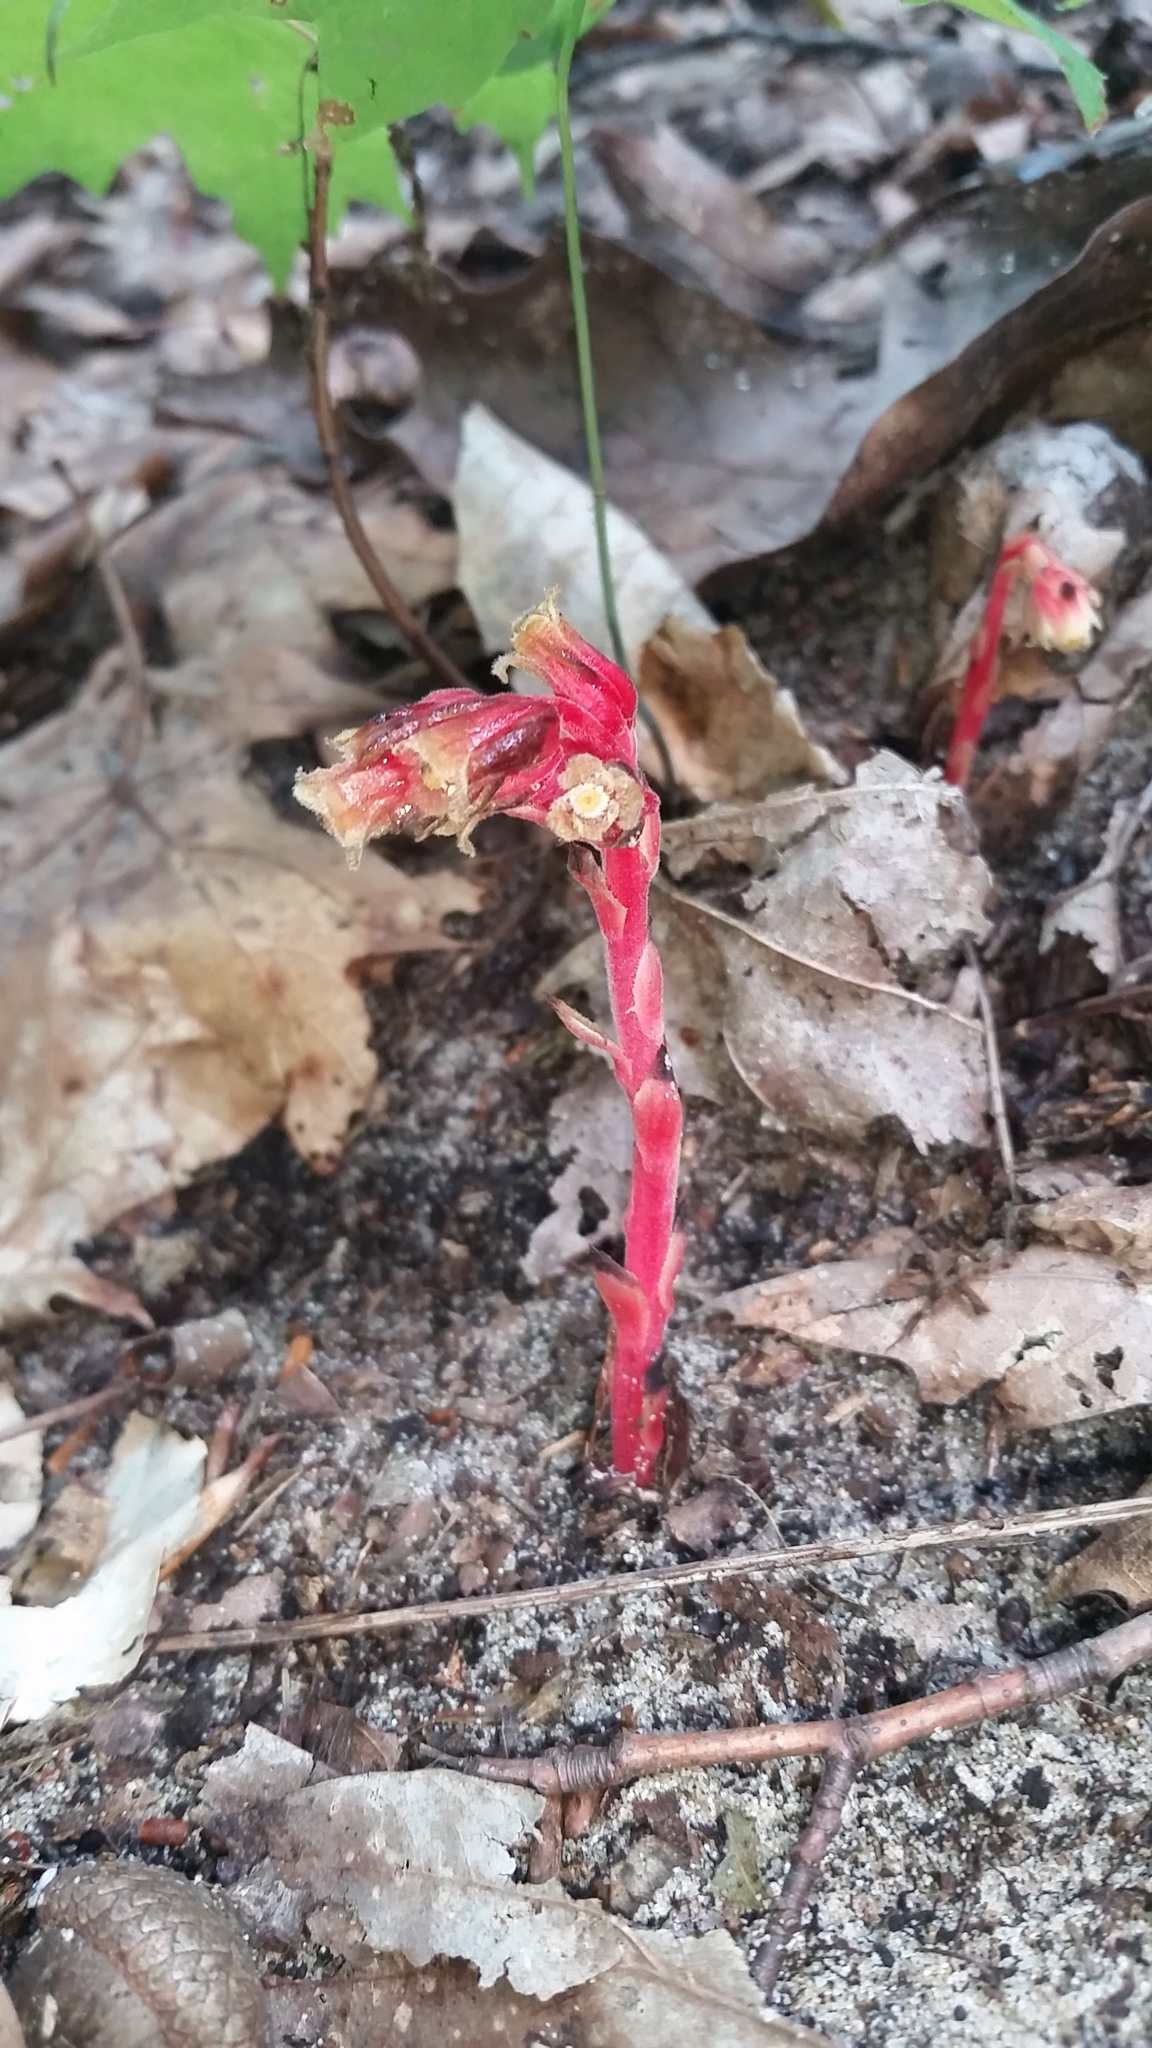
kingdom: Plantae
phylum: Tracheophyta
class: Magnoliopsida
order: Ericales
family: Ericaceae
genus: Hypopitys
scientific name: Hypopitys monotropa
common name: Yellow bird's-nest
